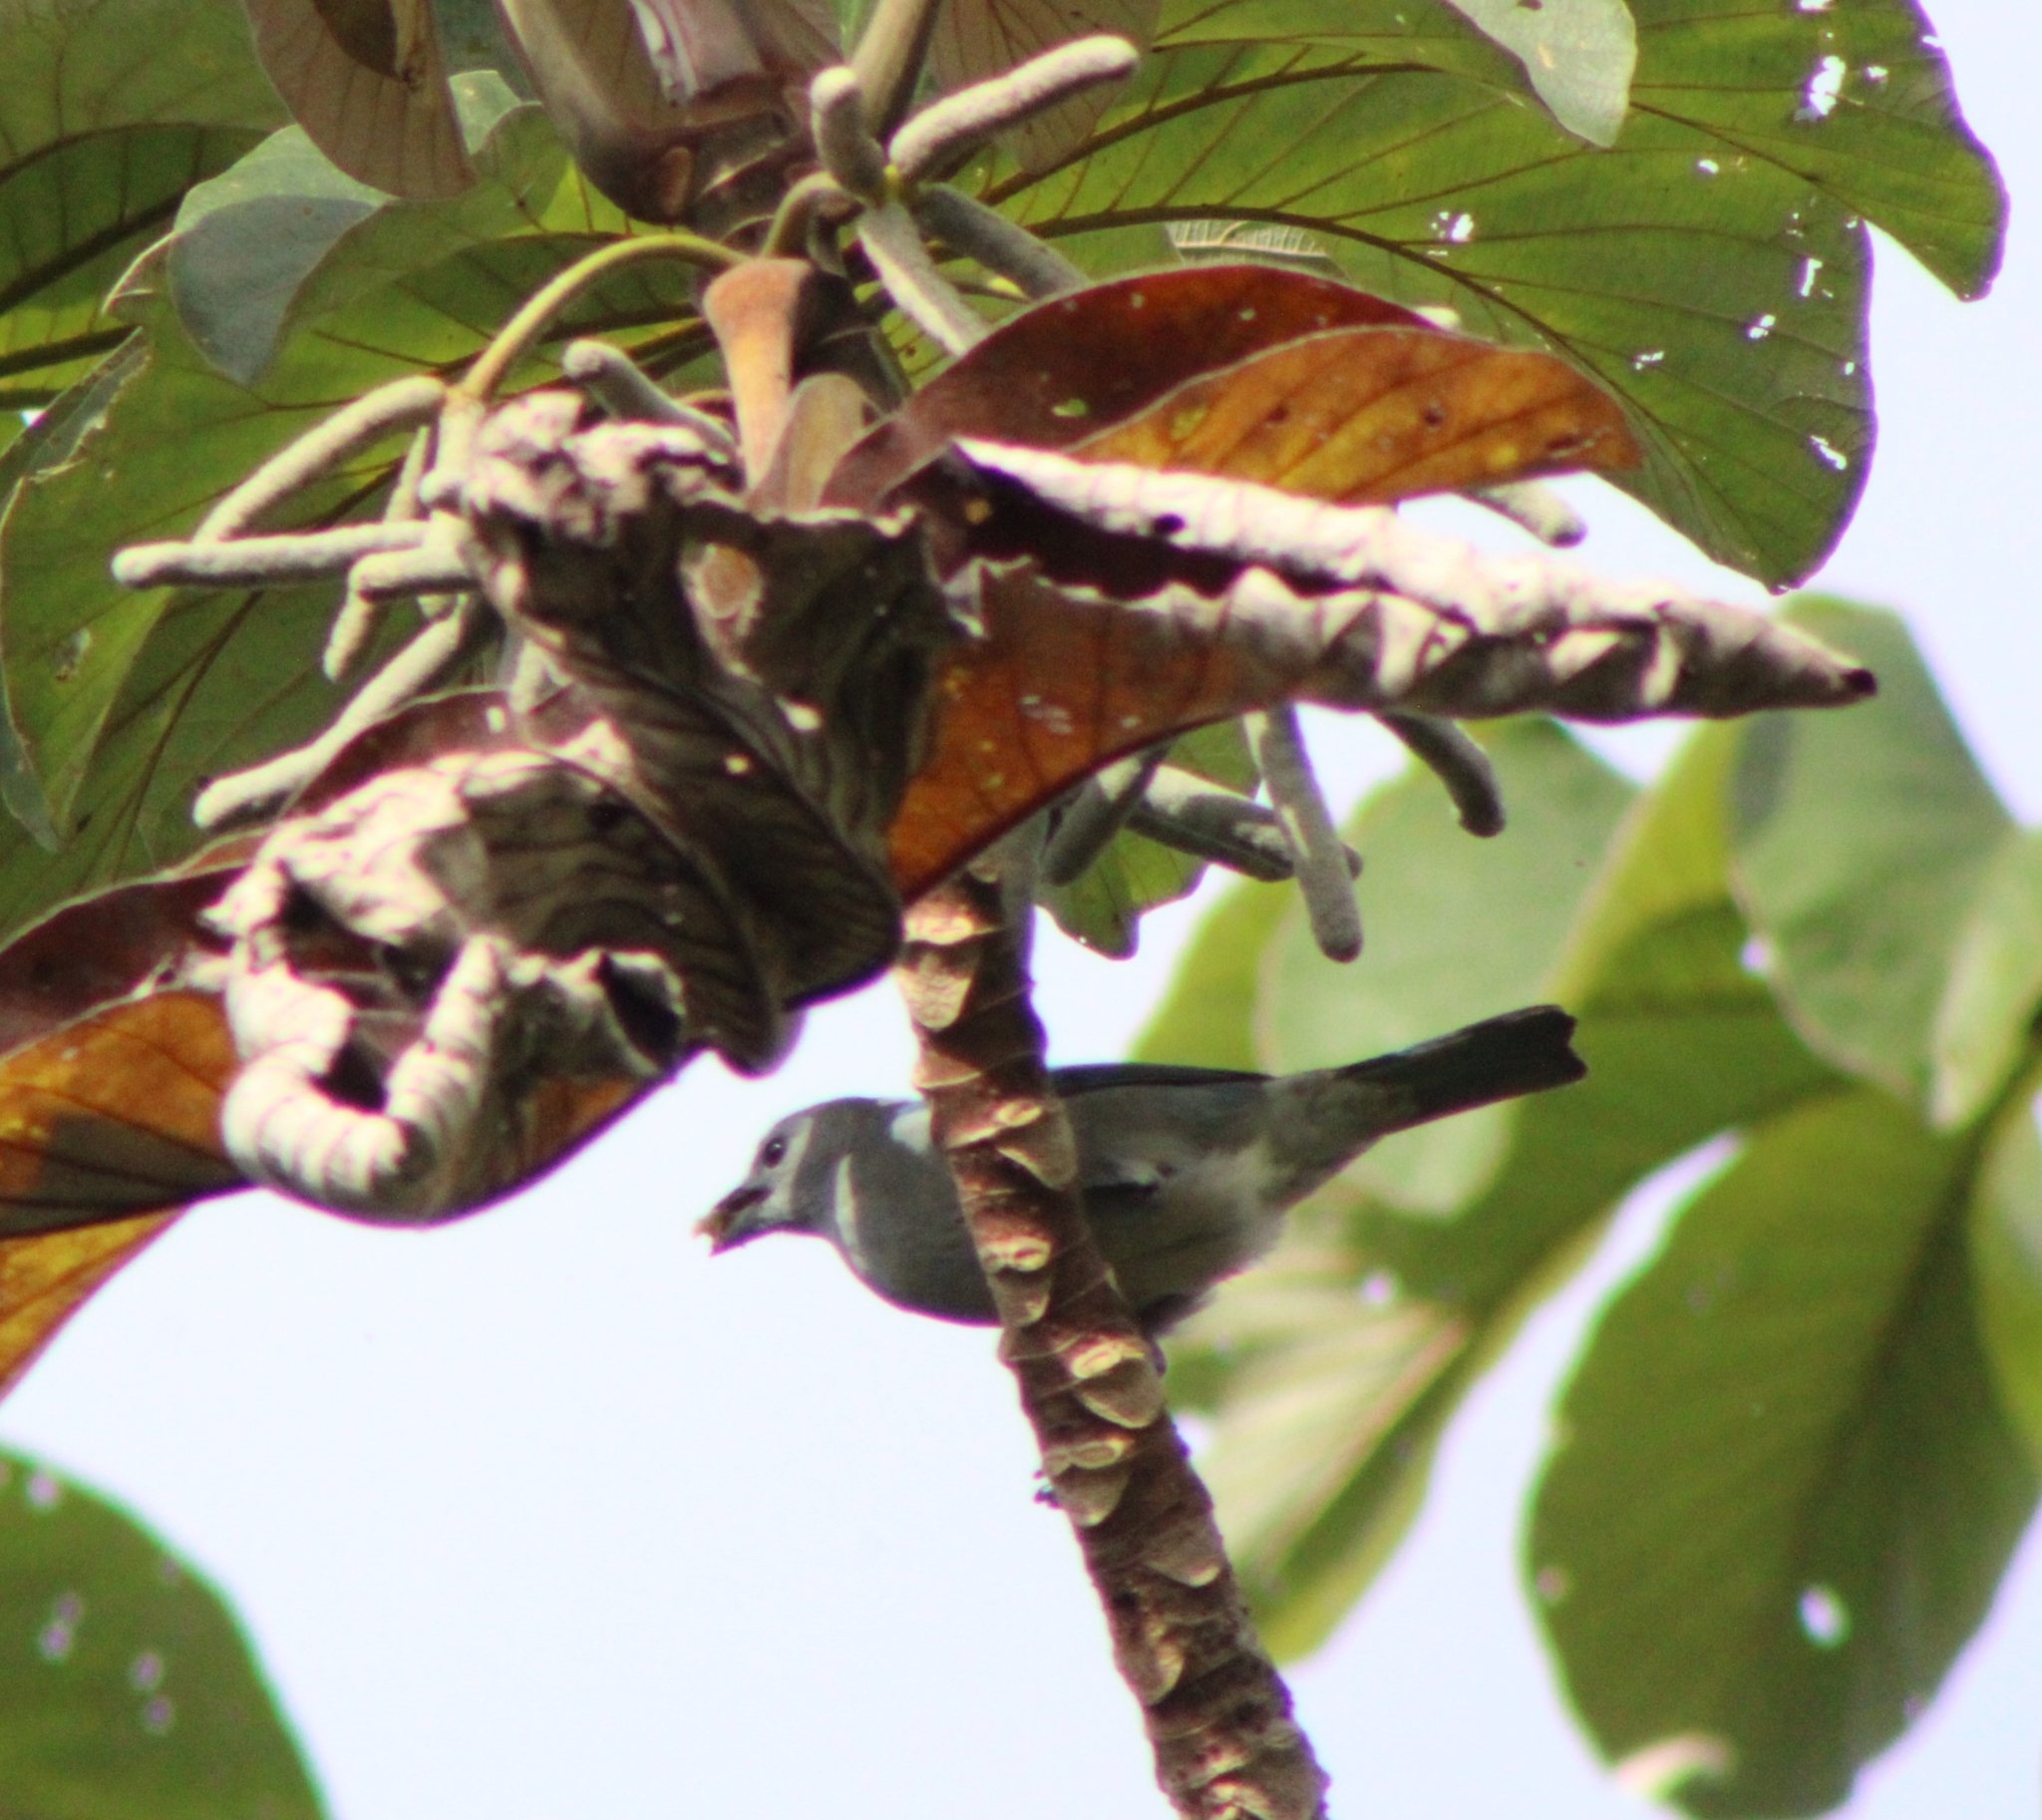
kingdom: Animalia
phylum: Chordata
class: Aves
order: Passeriformes
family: Thraupidae
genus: Thraupis
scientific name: Thraupis episcopus
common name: Blue-grey tanager
